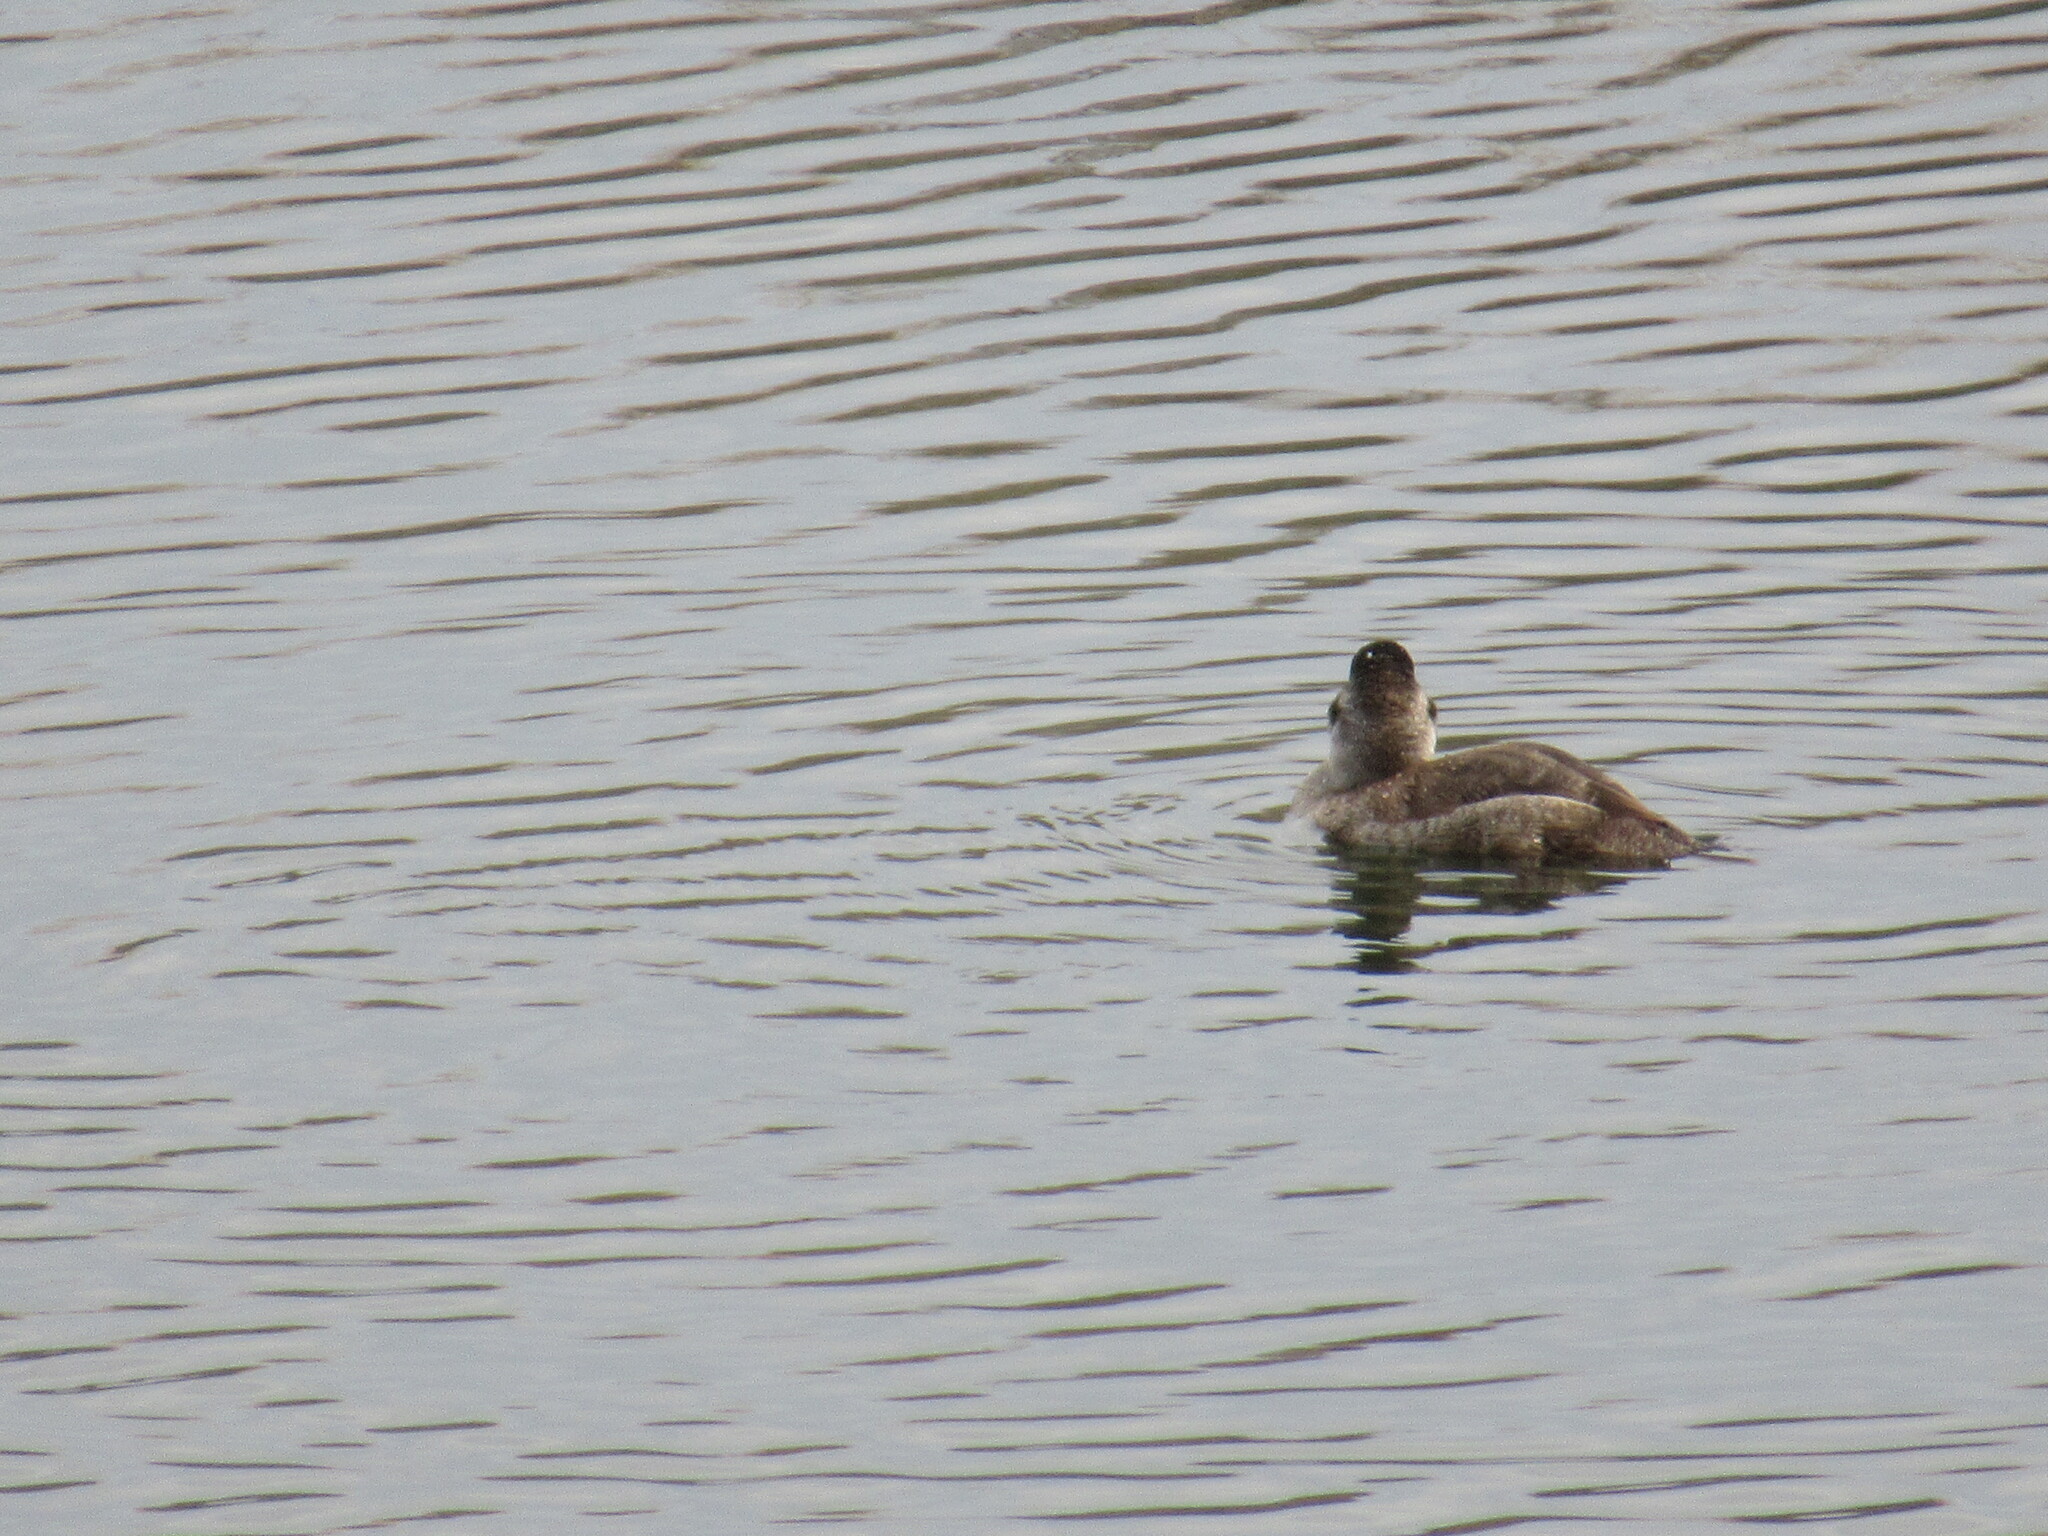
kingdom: Animalia
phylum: Chordata
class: Aves
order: Anseriformes
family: Anatidae
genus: Oxyura
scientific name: Oxyura jamaicensis
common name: Ruddy duck
